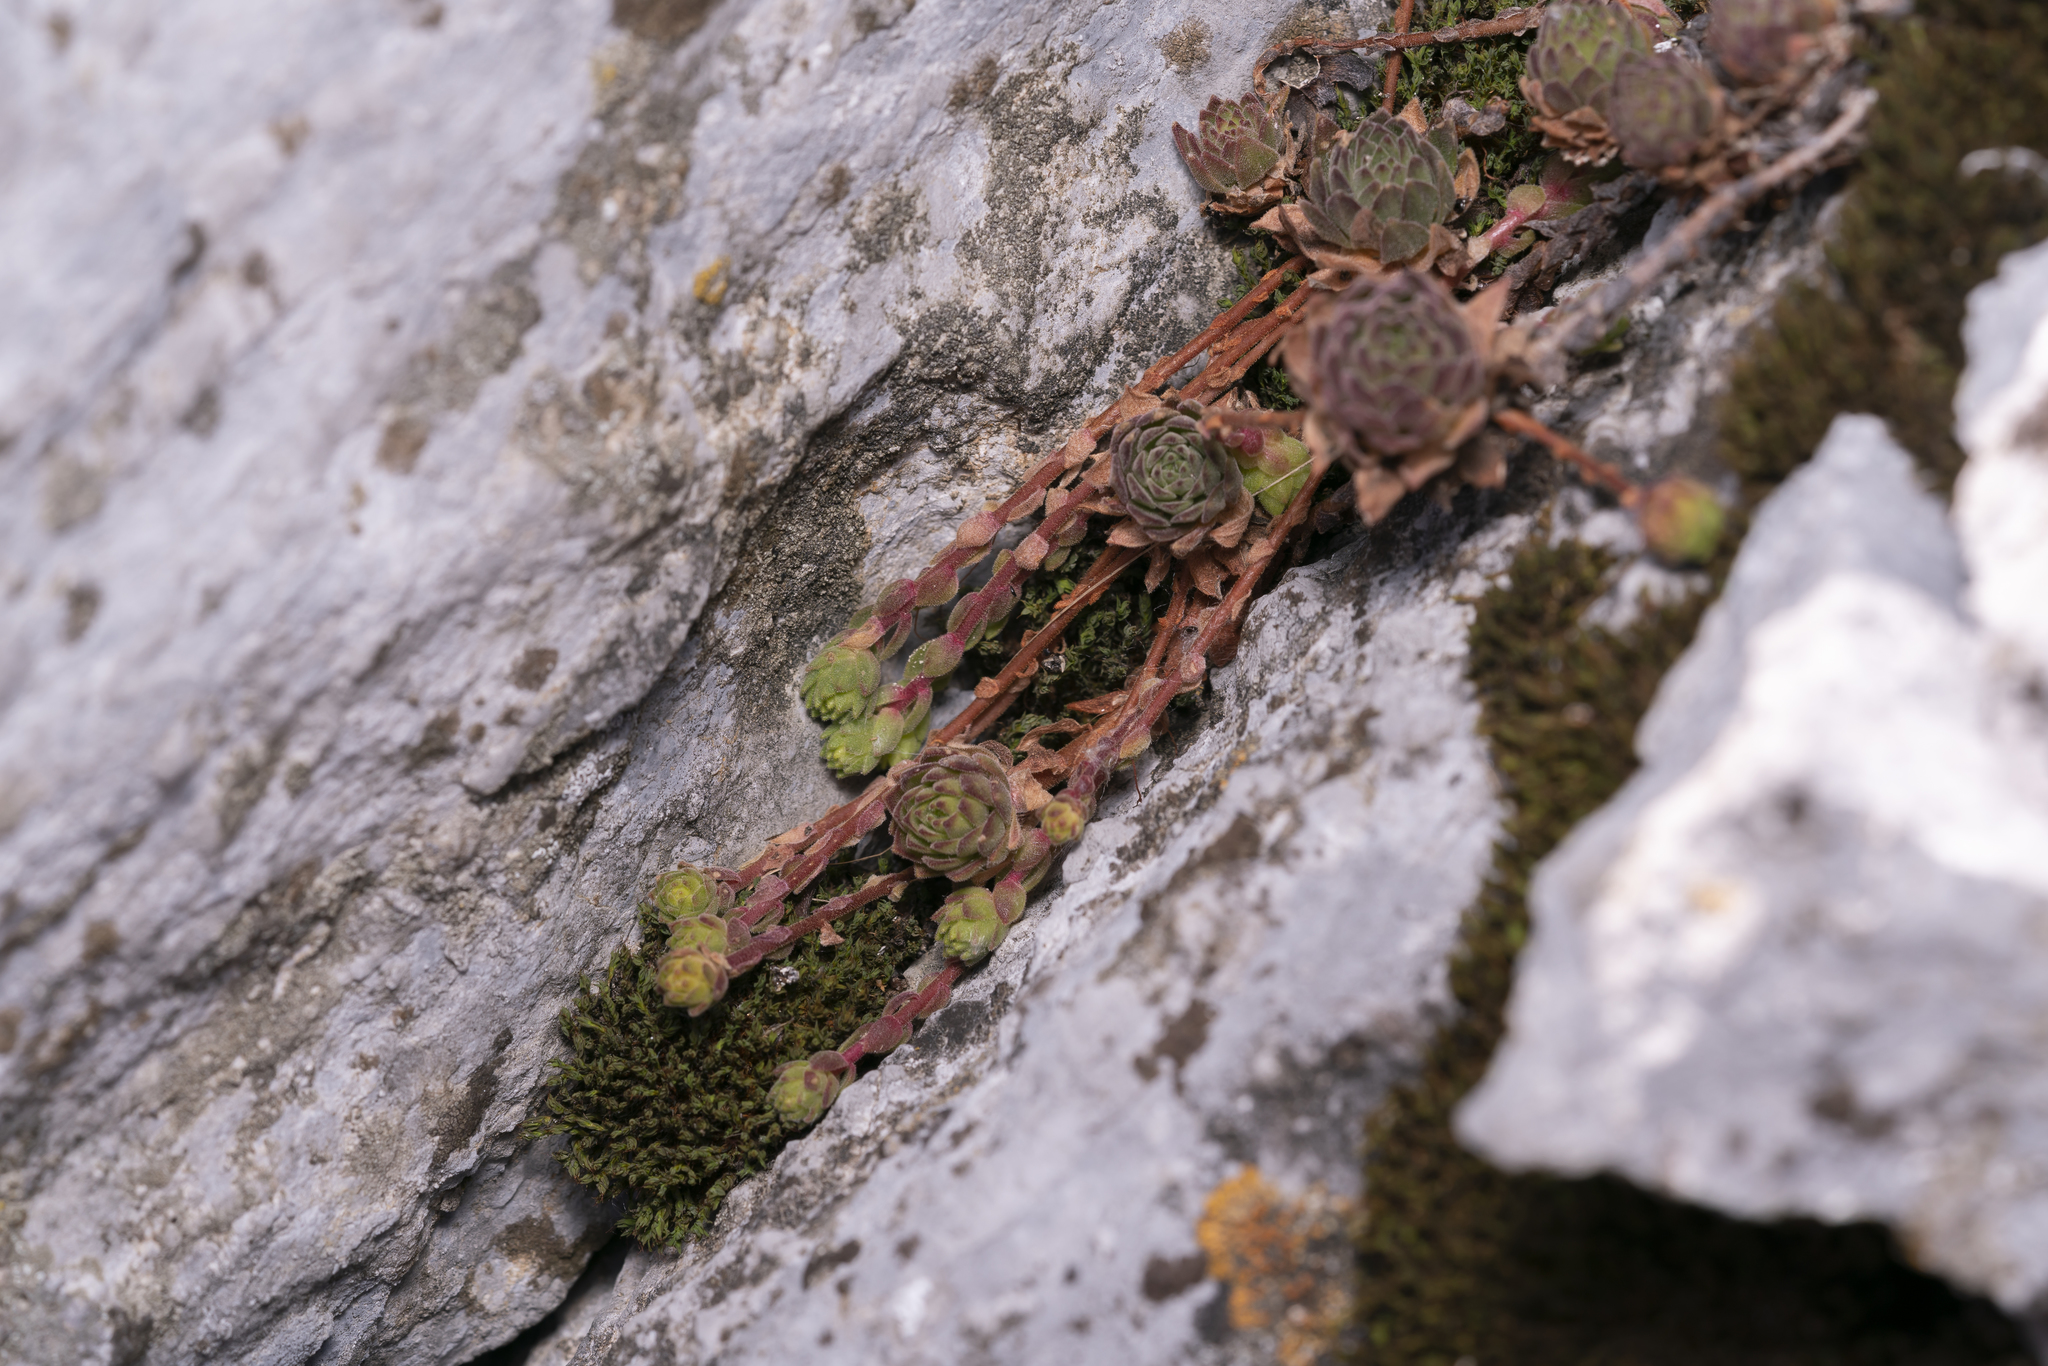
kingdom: Plantae
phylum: Tracheophyta
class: Magnoliopsida
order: Saxifragales
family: Crassulaceae
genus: Sempervivum
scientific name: Sempervivum montanum
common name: Mountain house-leek
